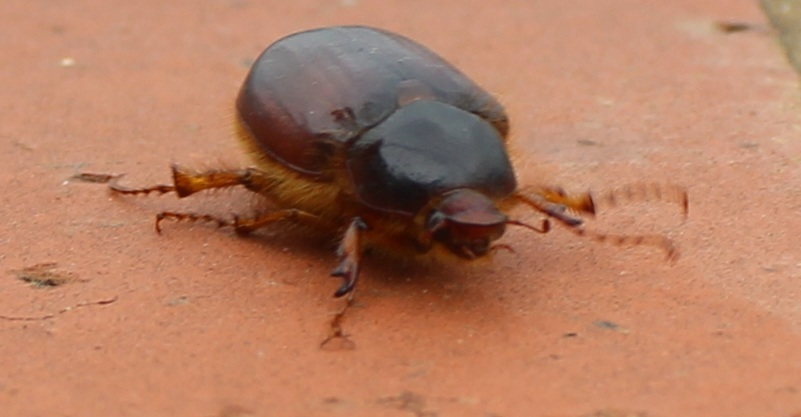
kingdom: Animalia
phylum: Arthropoda
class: Insecta
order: Coleoptera
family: Scarabaeidae
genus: Paulosawaya
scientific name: Paulosawaya ursina
